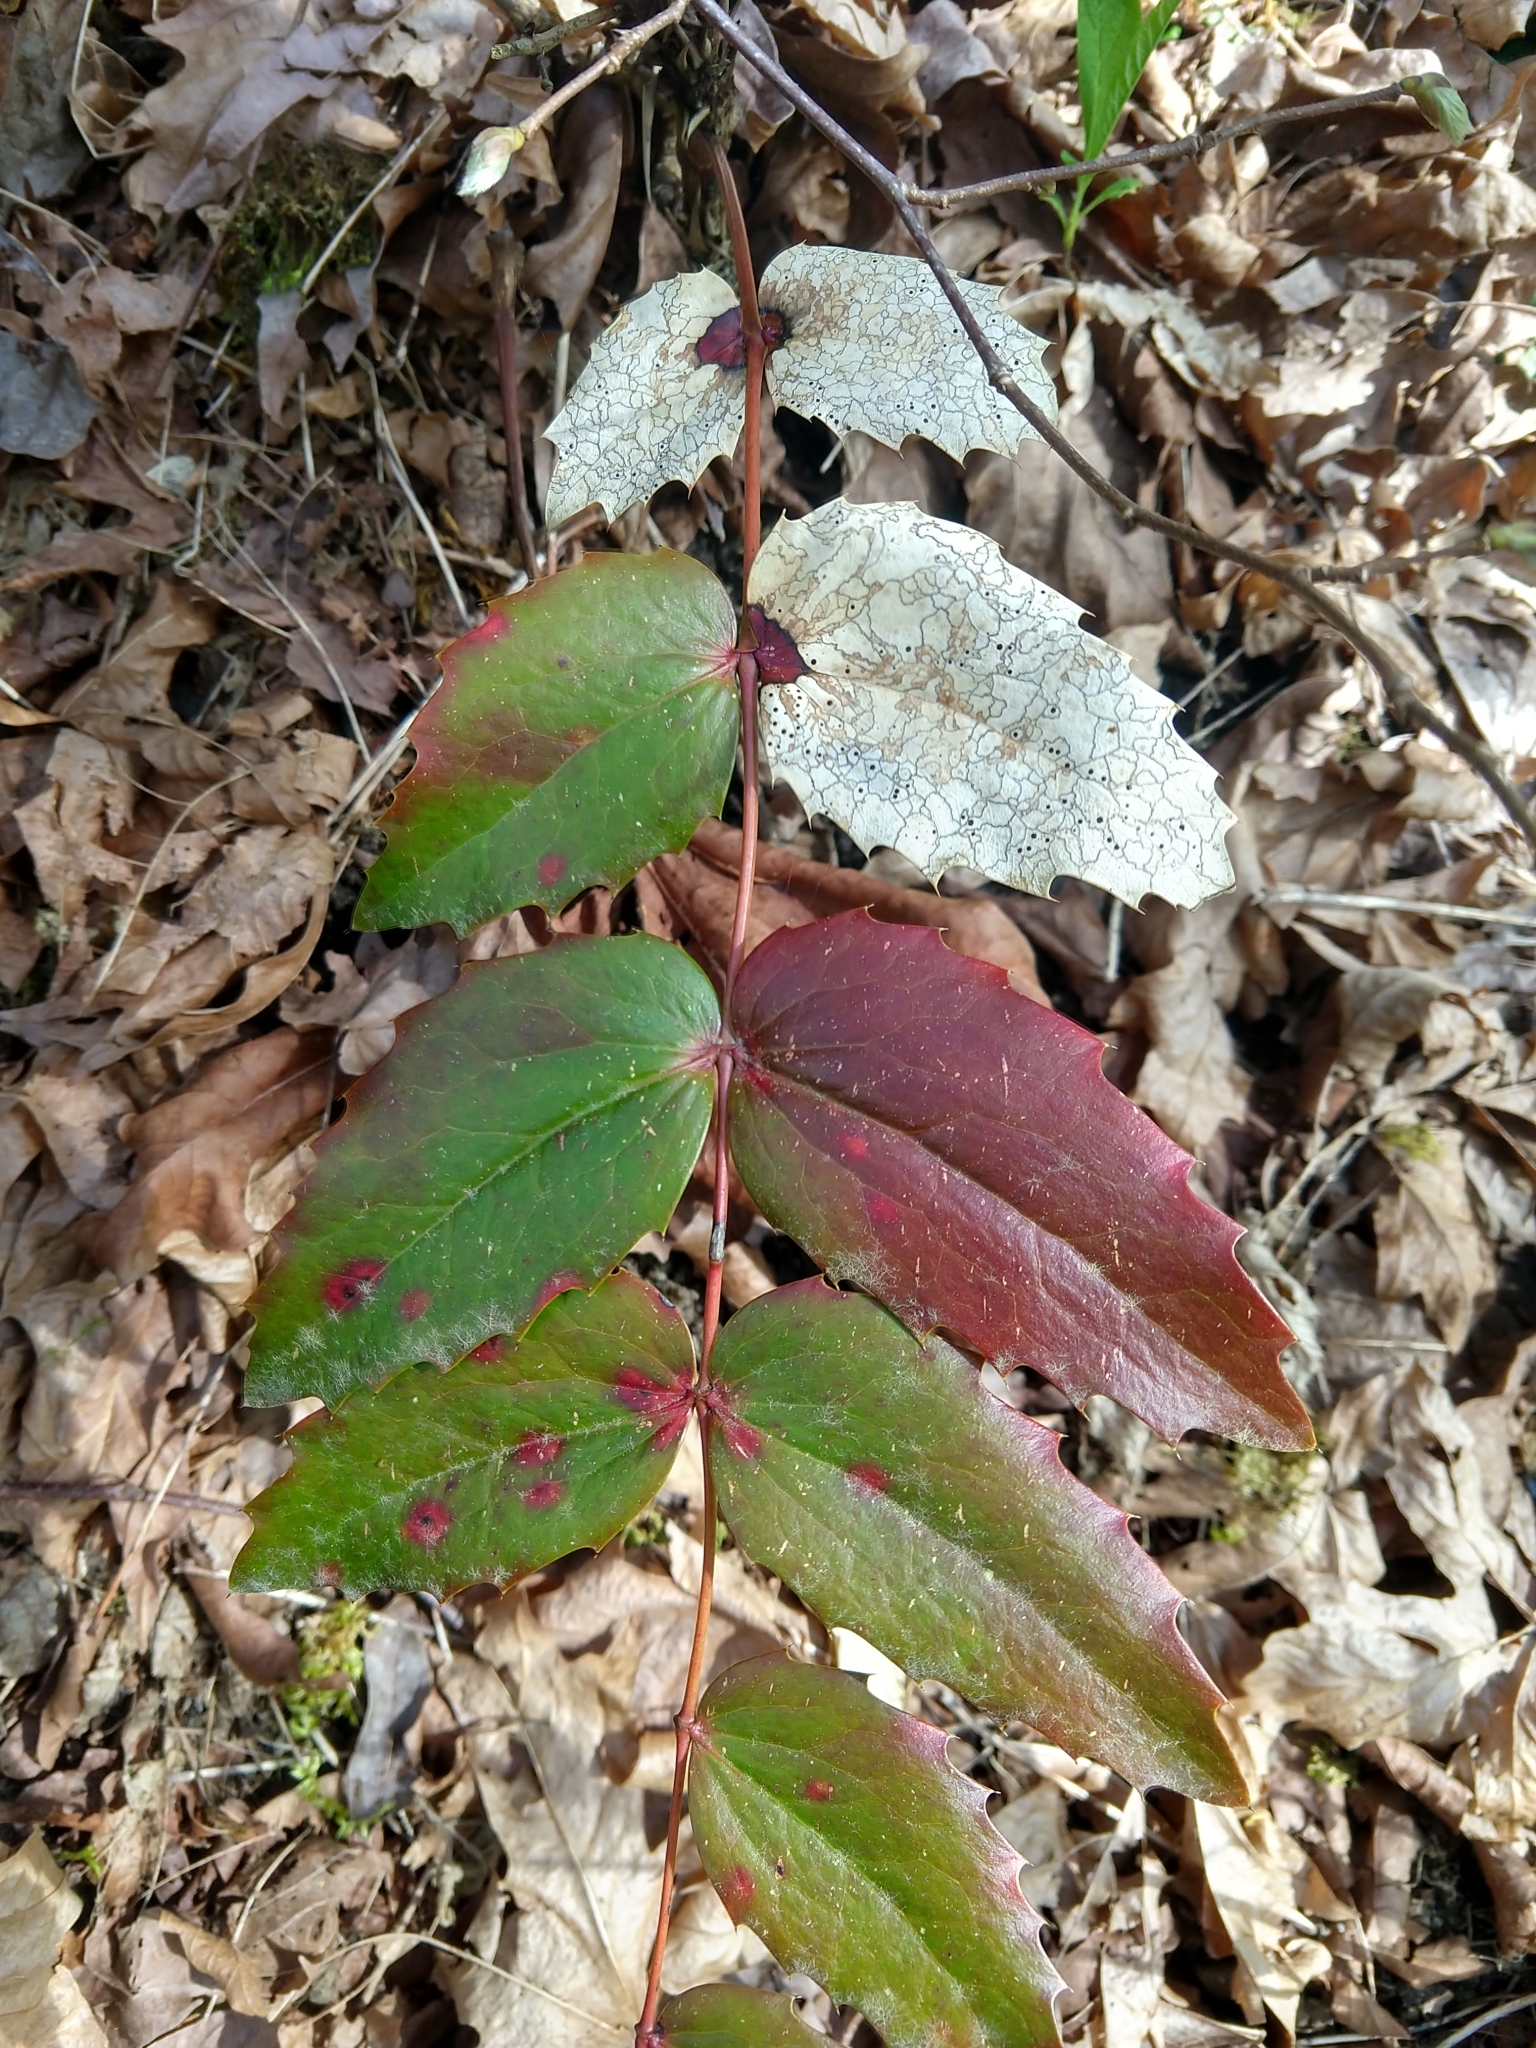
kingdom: Fungi
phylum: Ascomycota
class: Leotiomycetes
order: Rhytismatales
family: Rhytismataceae
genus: Coccomyces
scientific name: Coccomyces dentatus
